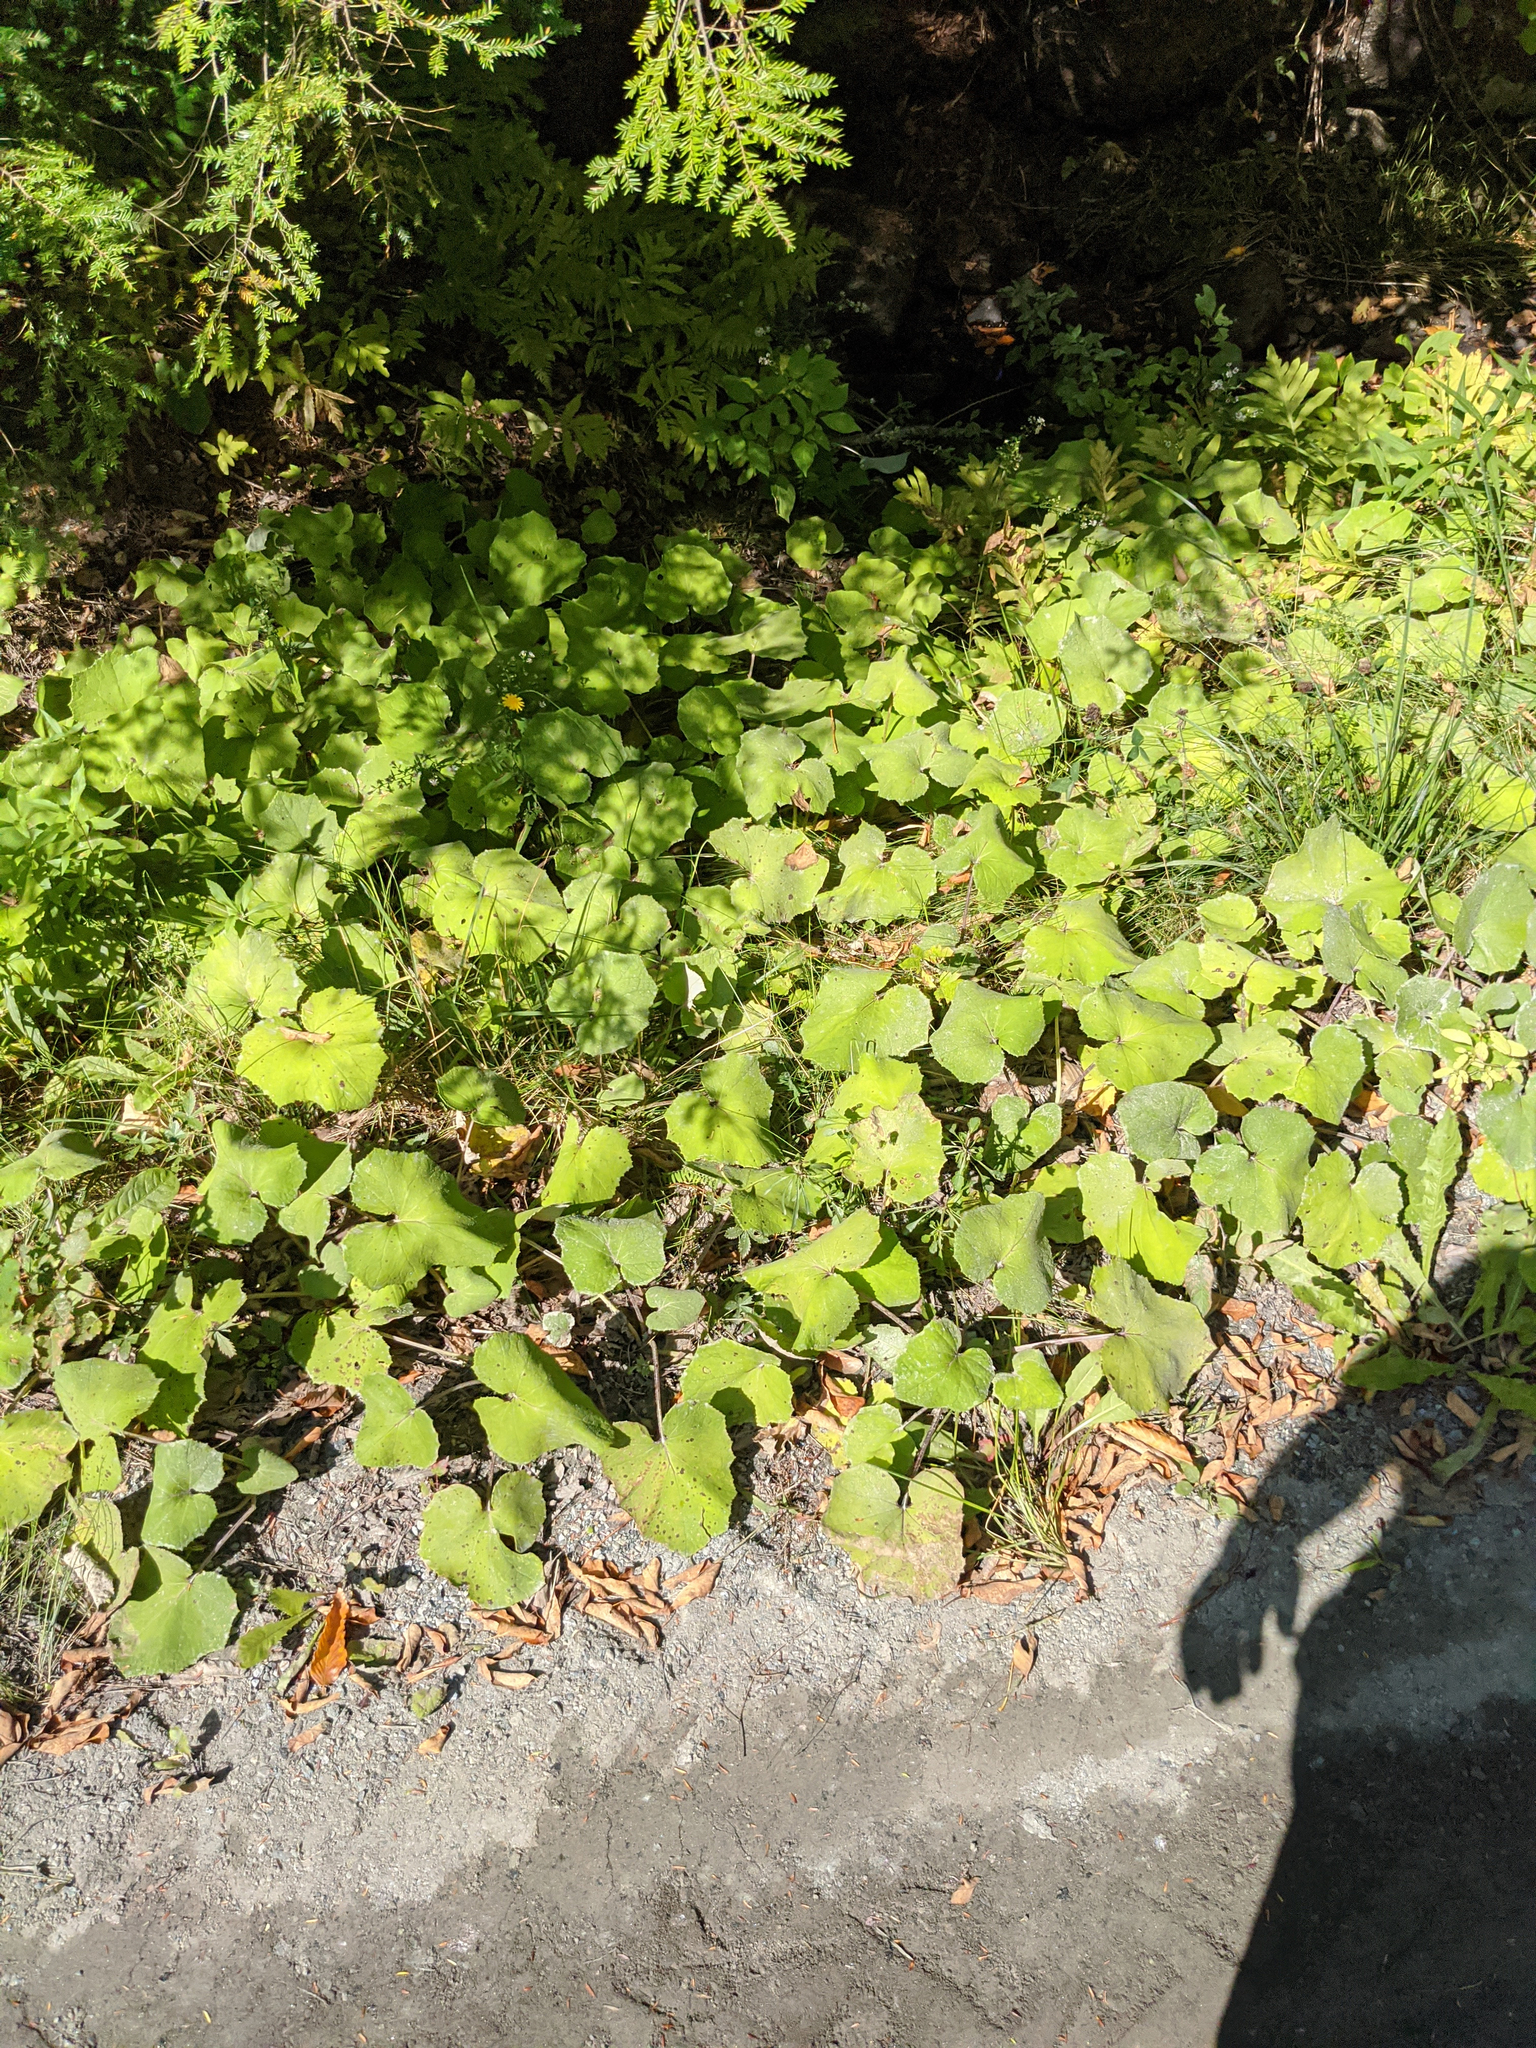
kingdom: Plantae
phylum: Tracheophyta
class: Magnoliopsida
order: Asterales
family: Asteraceae
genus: Tussilago
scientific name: Tussilago farfara
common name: Coltsfoot
